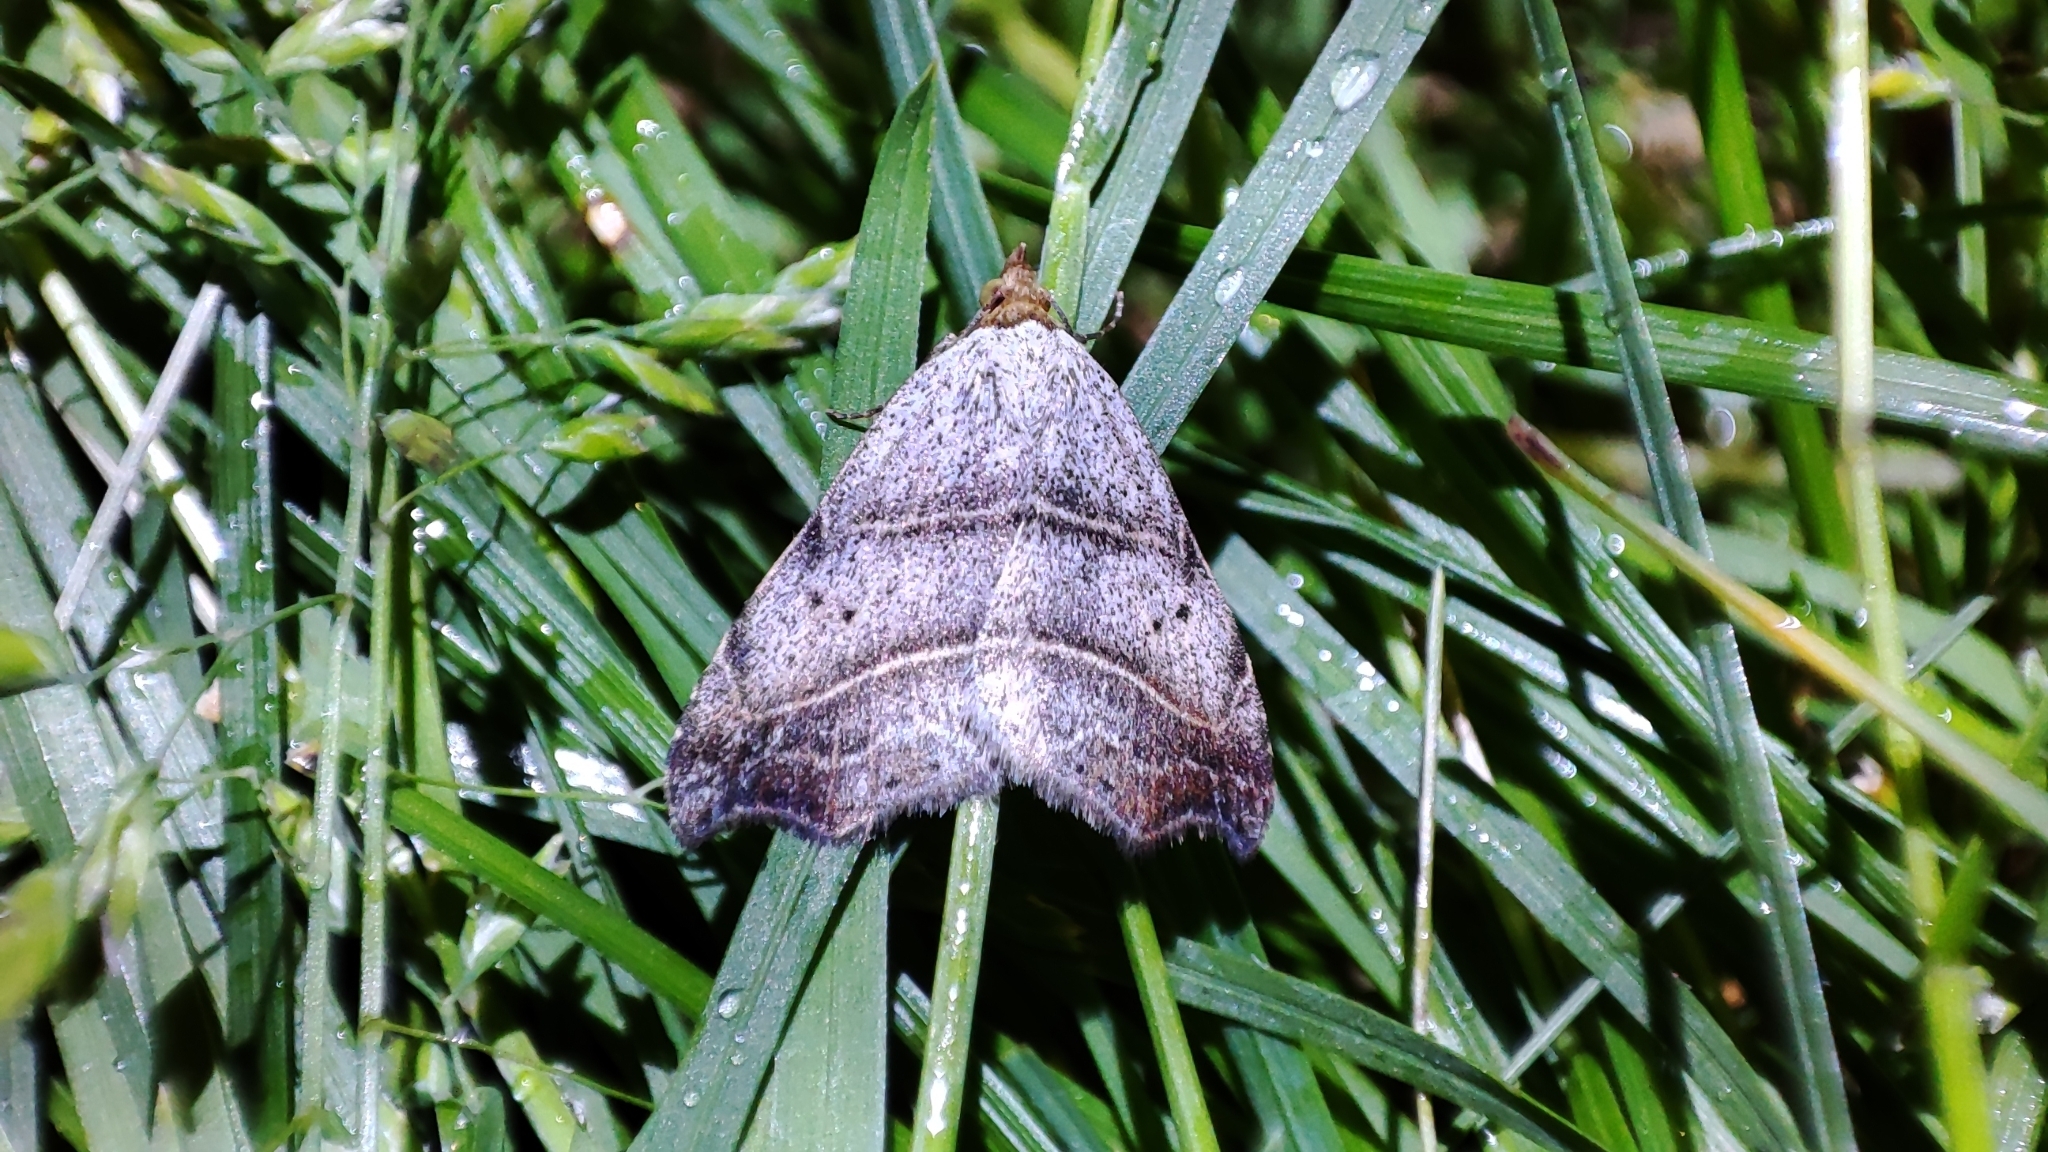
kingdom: Animalia
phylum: Arthropoda
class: Insecta
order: Lepidoptera
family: Erebidae
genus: Laspeyria
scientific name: Laspeyria flexula
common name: Beautiful hook-tip
